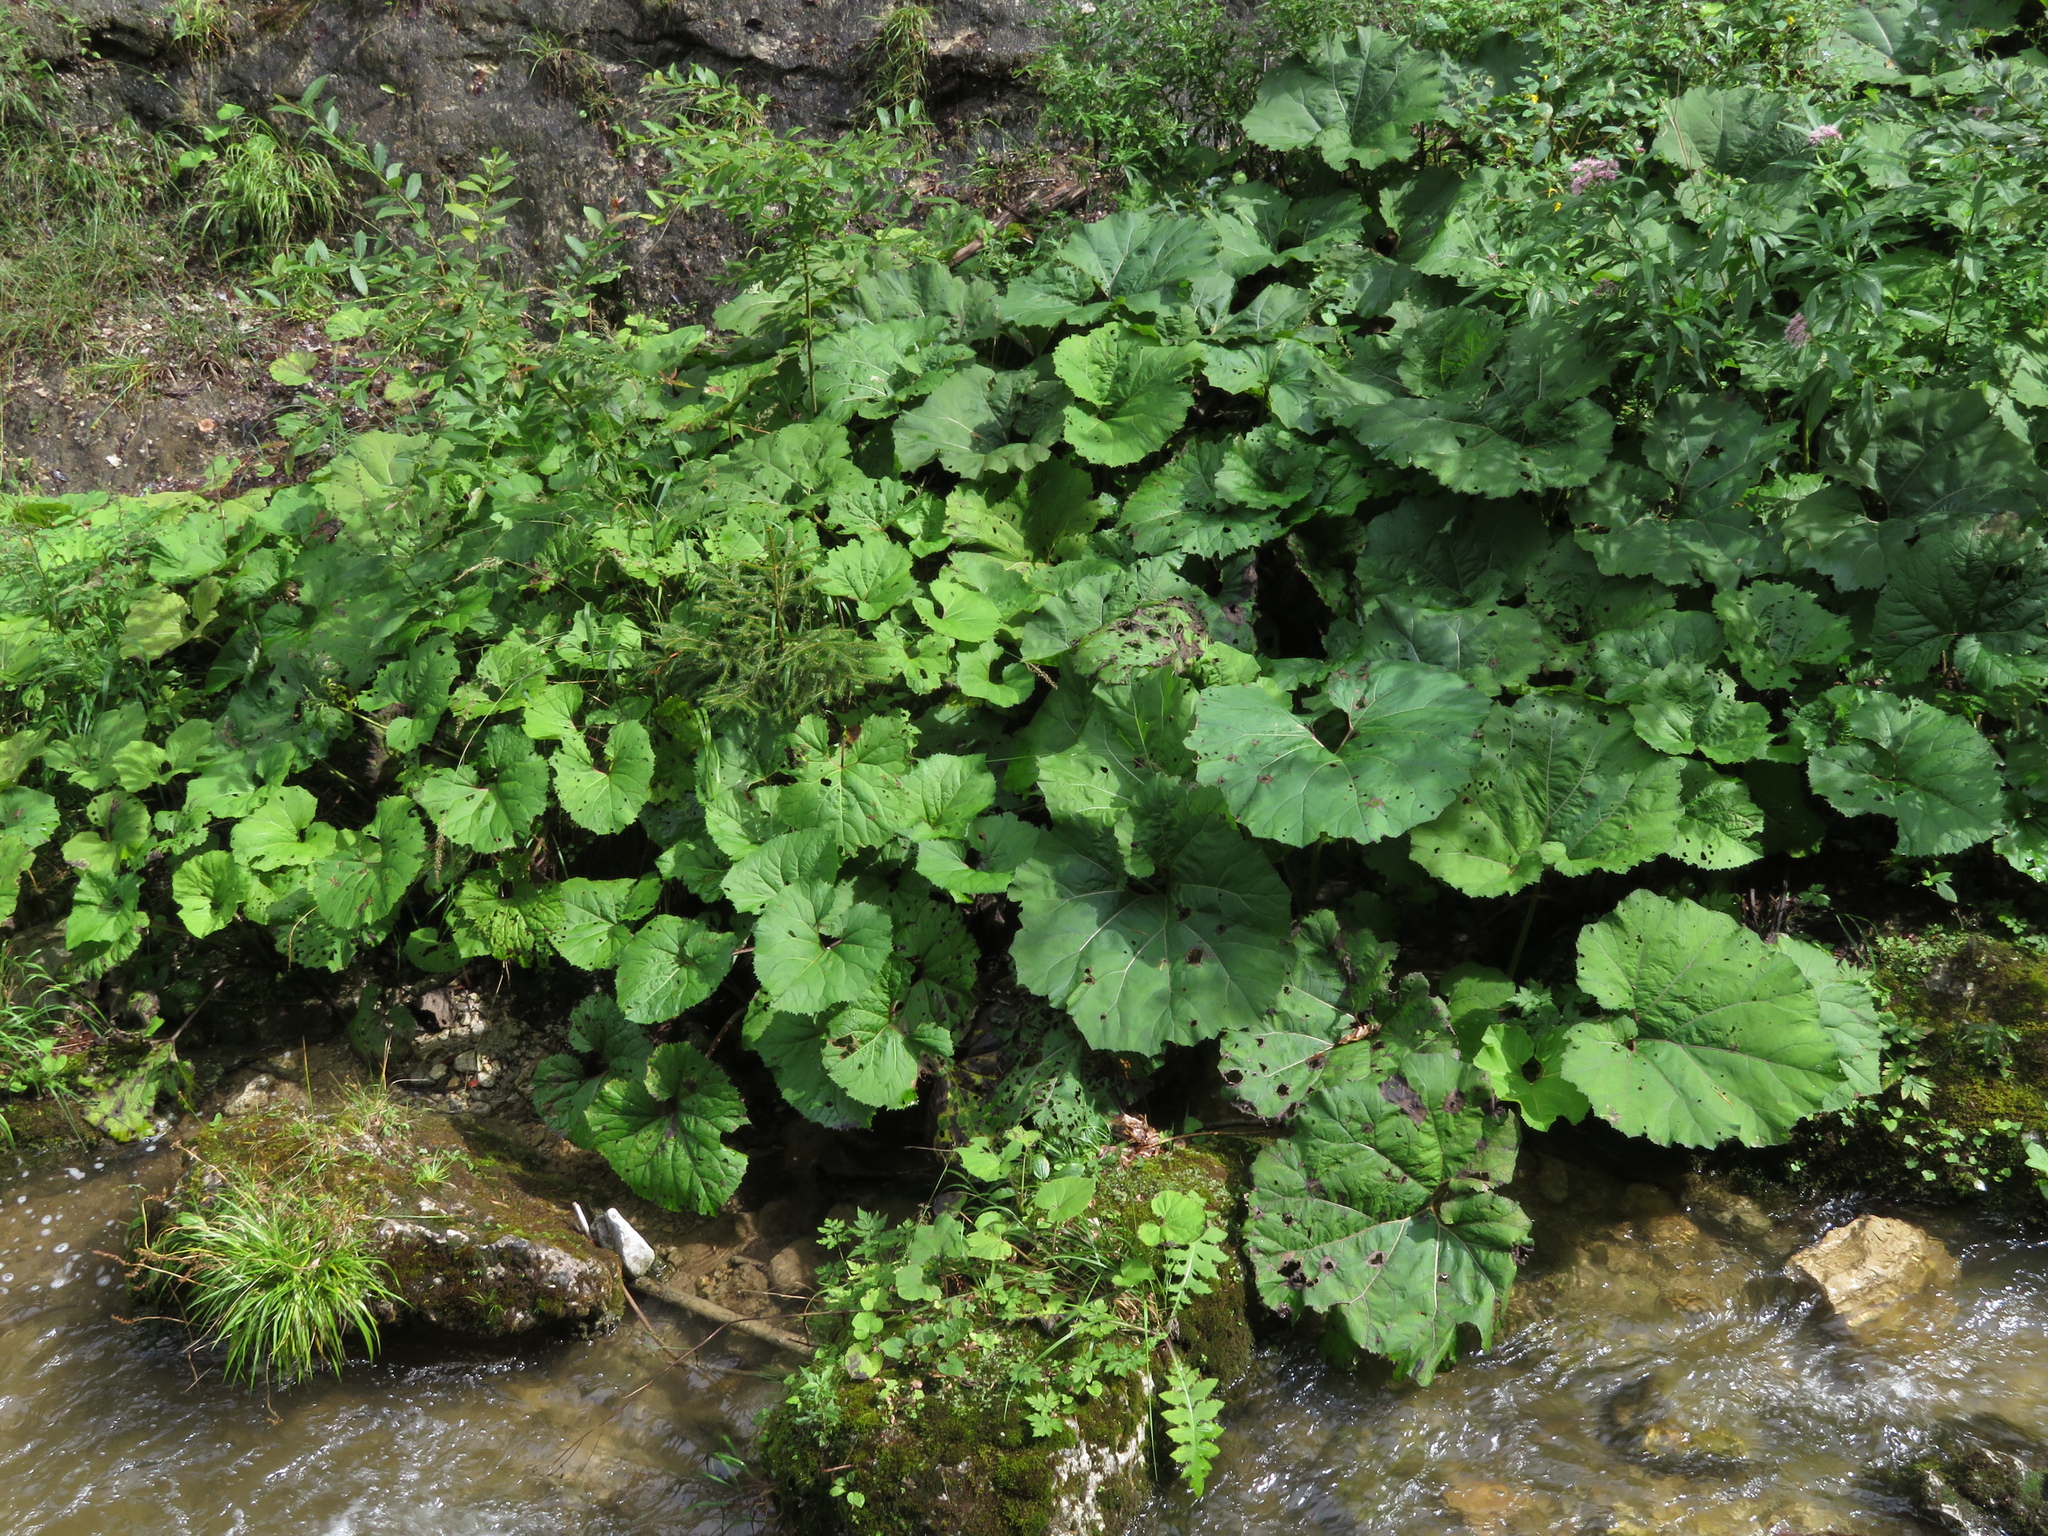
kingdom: Plantae
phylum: Tracheophyta
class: Magnoliopsida
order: Asterales
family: Asteraceae
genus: Petasites
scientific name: Petasites hybridus
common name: Butterbur
